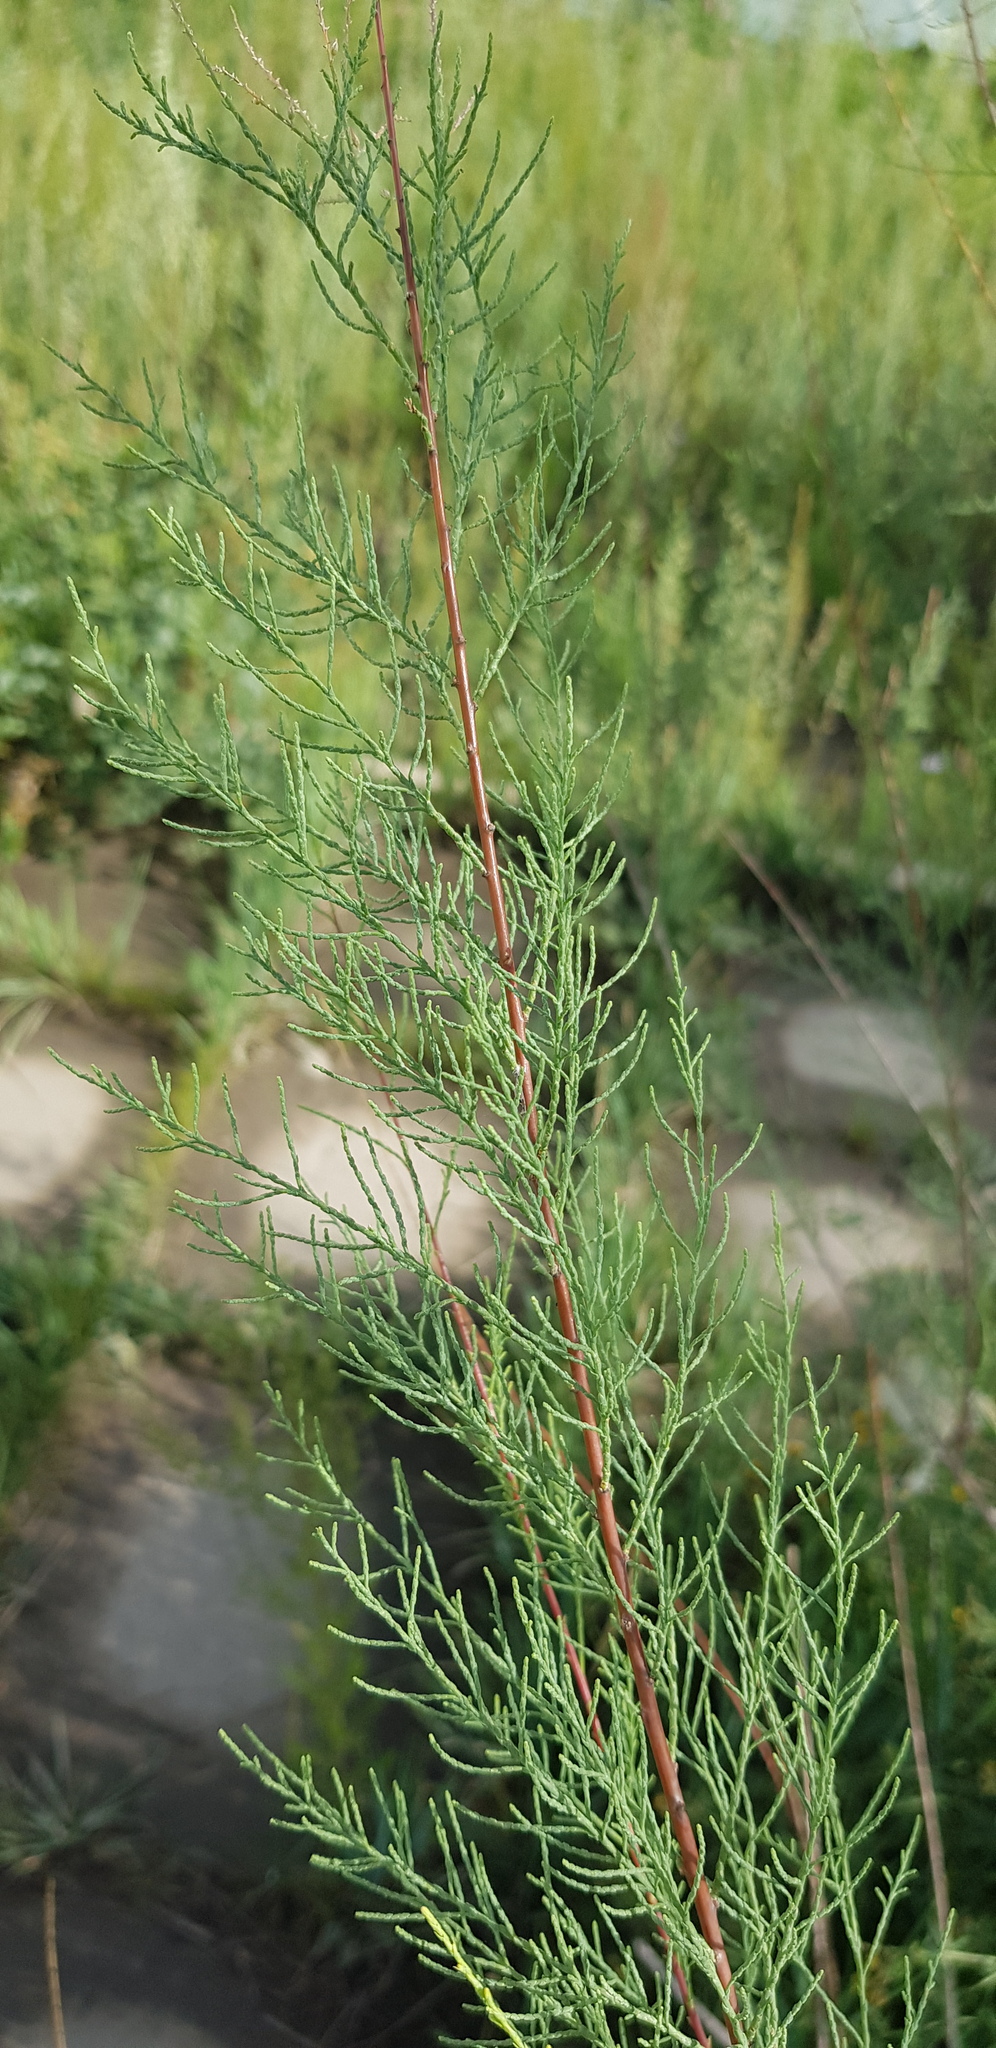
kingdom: Plantae
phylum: Tracheophyta
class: Magnoliopsida
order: Caryophyllales
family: Tamaricaceae
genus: Tamarix
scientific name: Tamarix ramosissima
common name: Pink tamarisk
